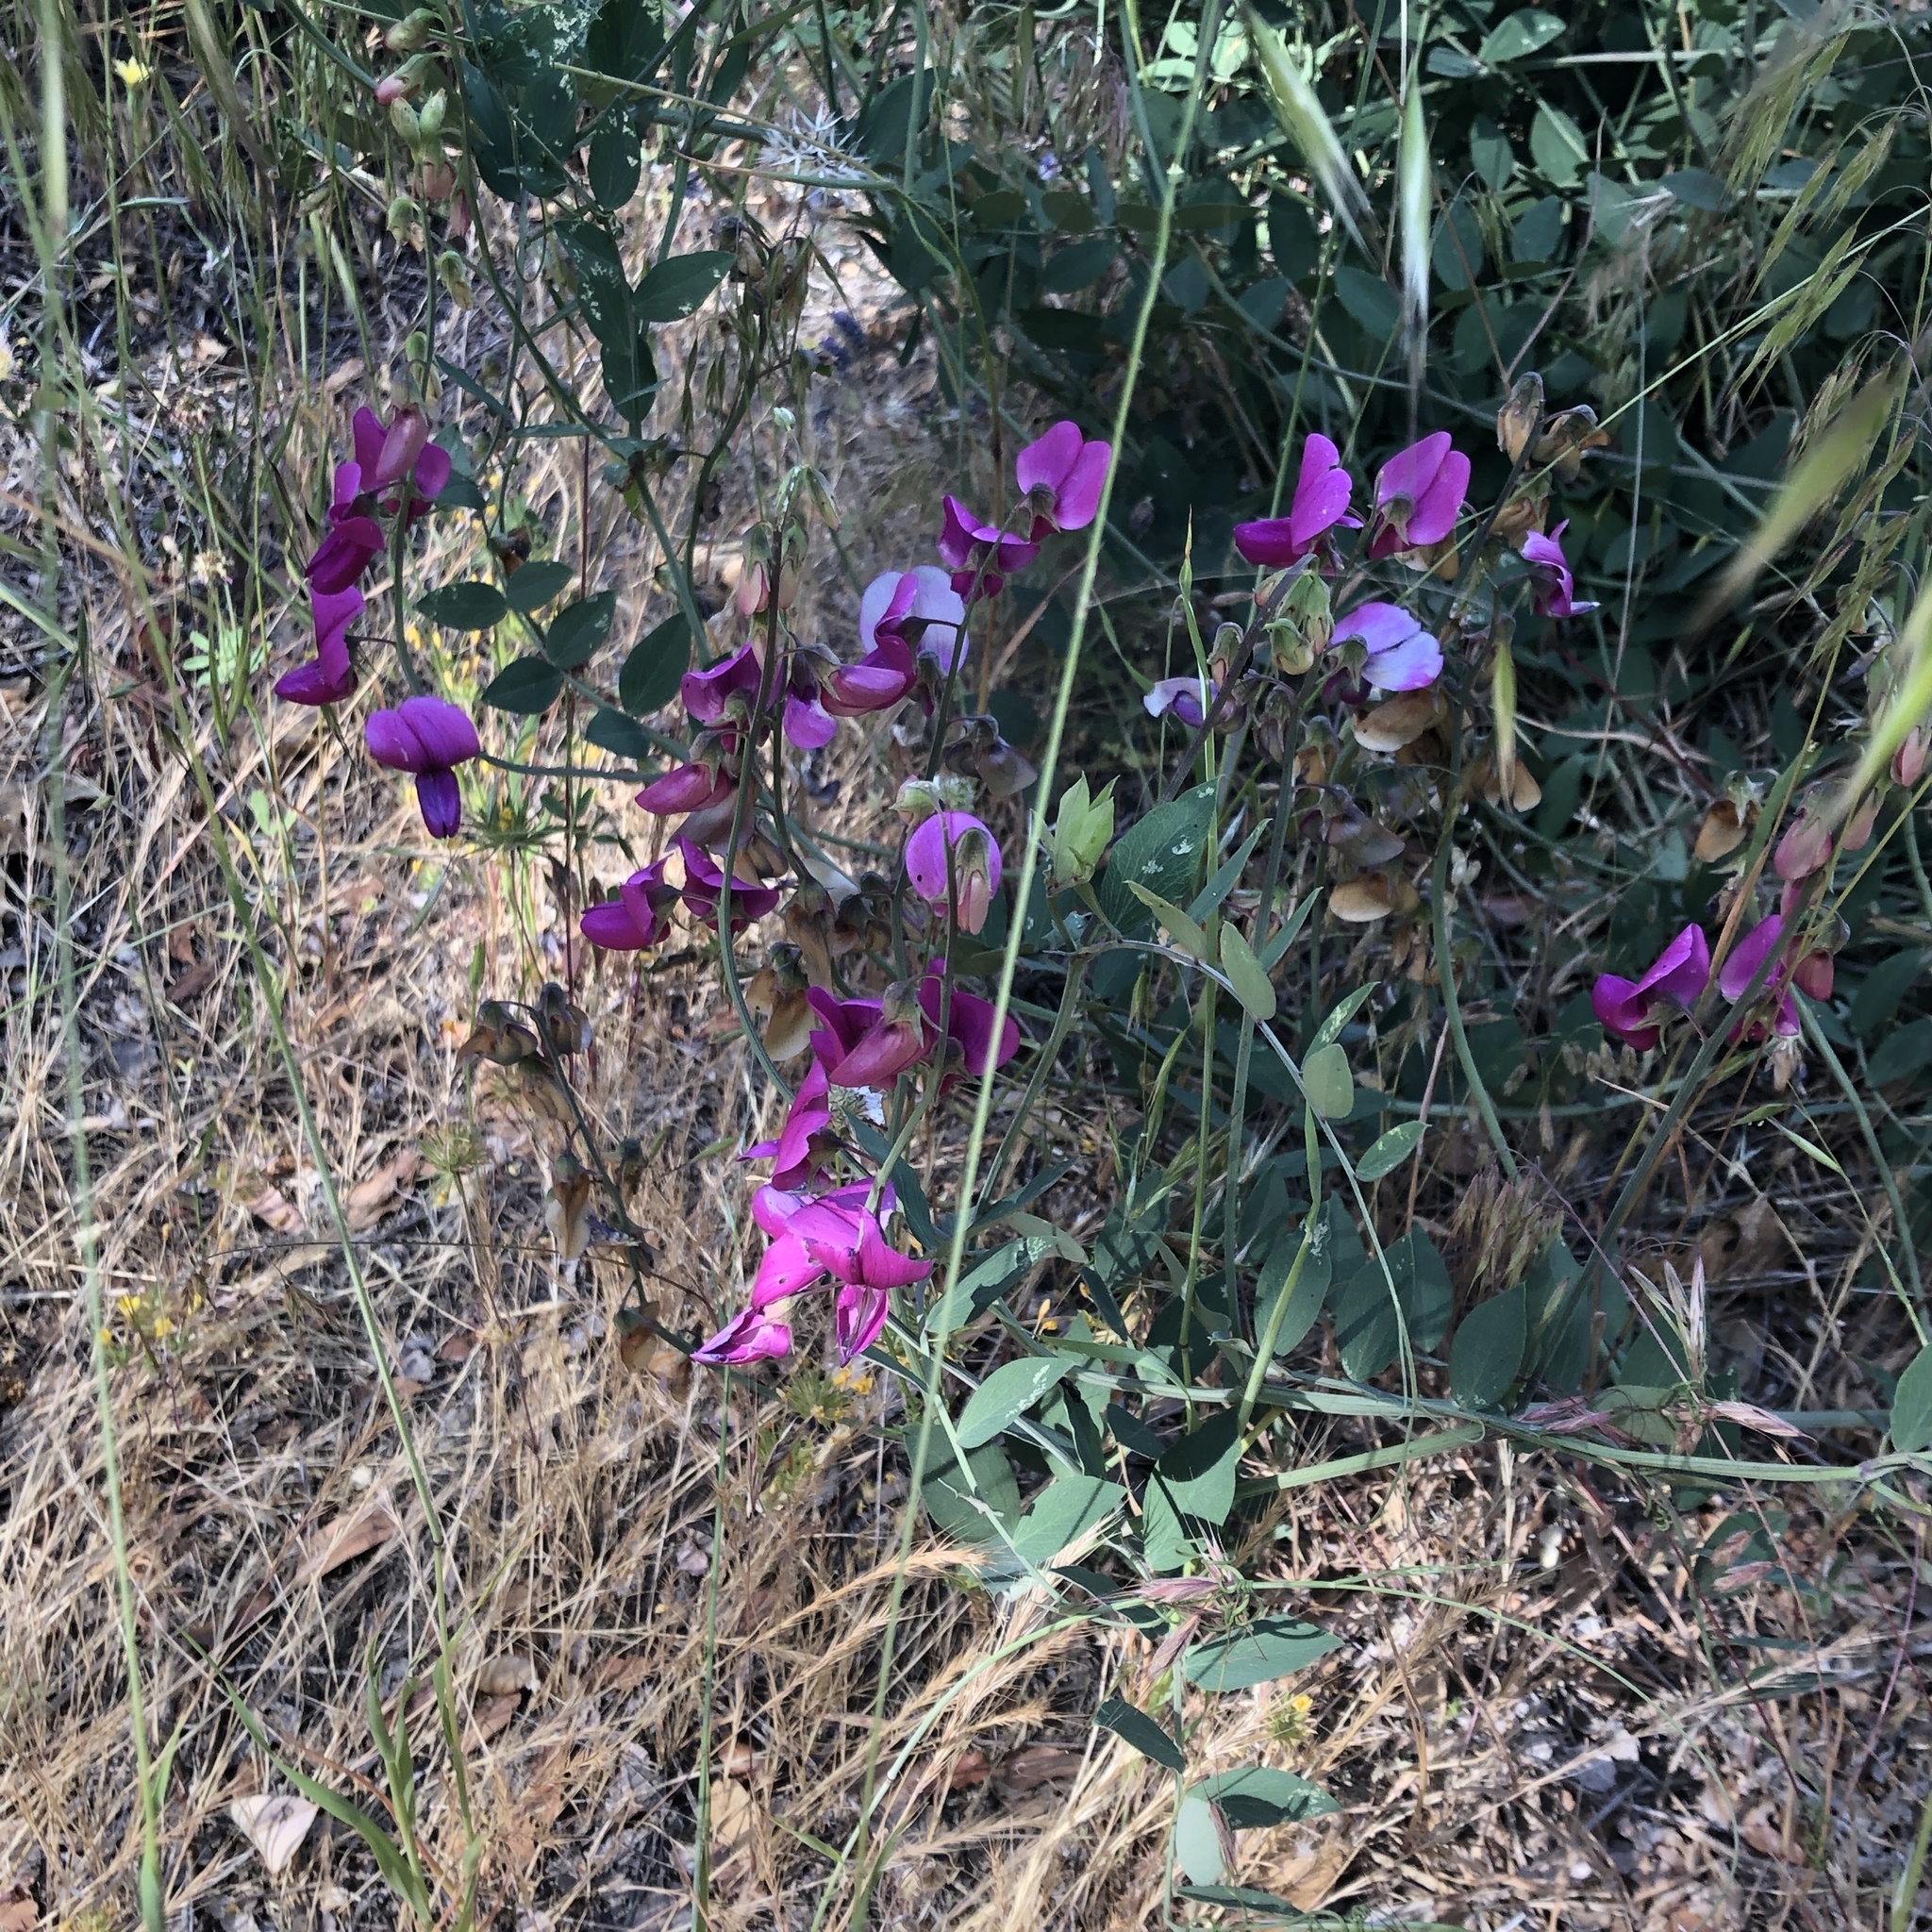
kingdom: Plantae
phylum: Tracheophyta
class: Magnoliopsida
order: Fabales
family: Fabaceae
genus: Lathyrus
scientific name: Lathyrus vestitus
